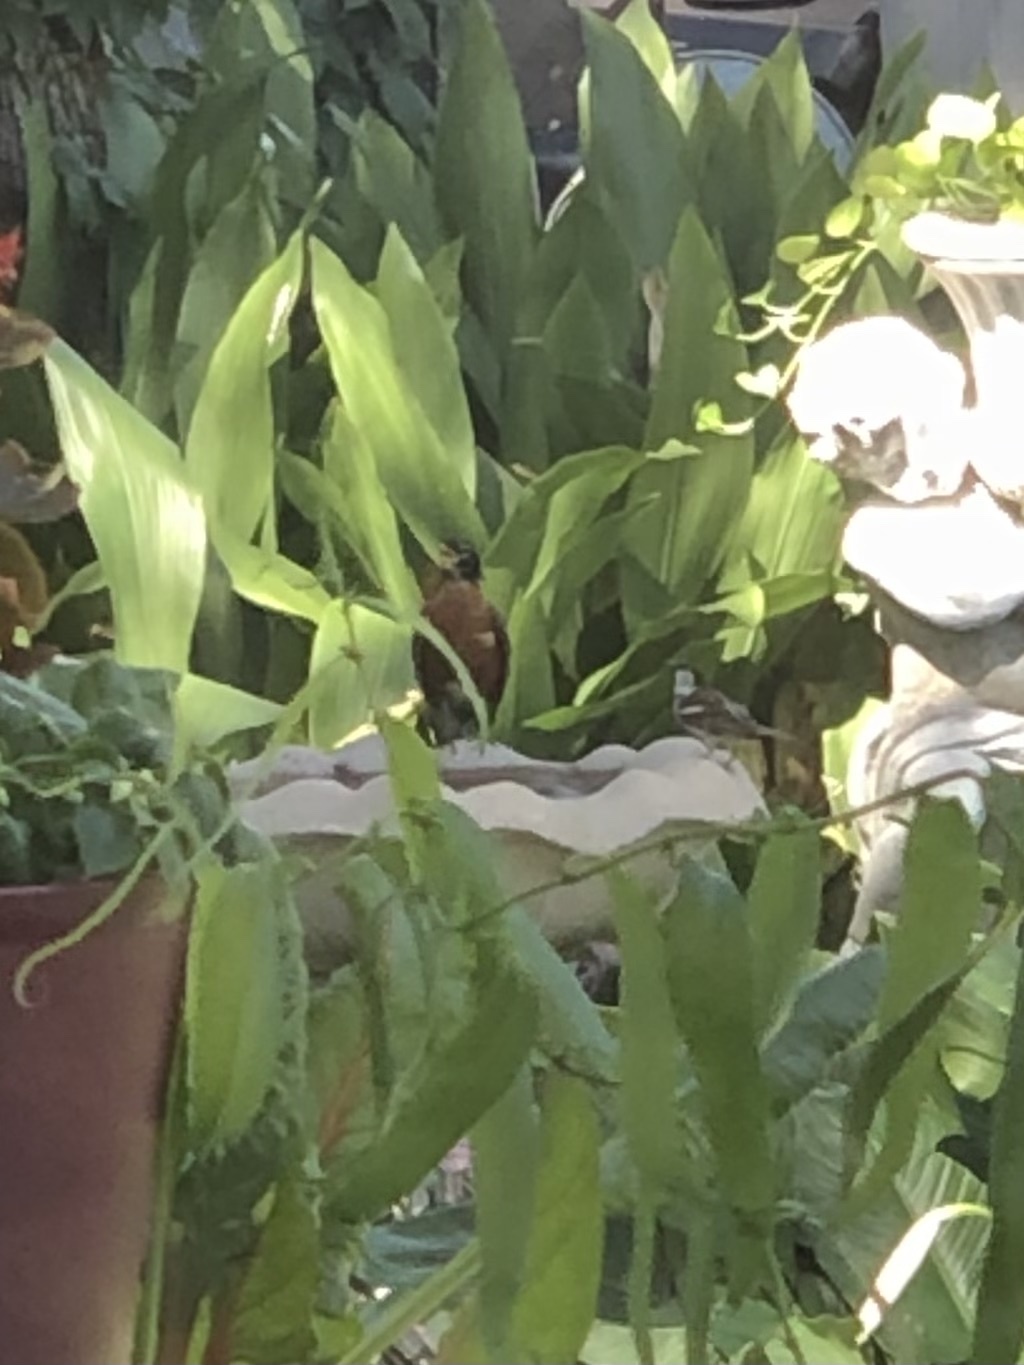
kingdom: Animalia
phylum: Chordata
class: Aves
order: Passeriformes
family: Passeridae
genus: Passer
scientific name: Passer domesticus
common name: House sparrow
